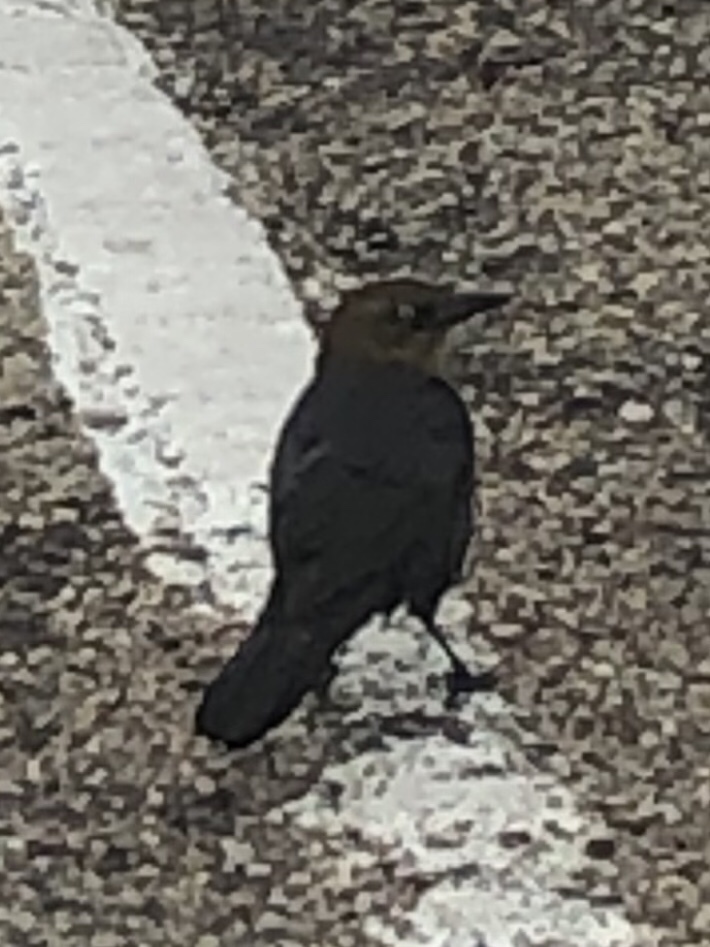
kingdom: Animalia
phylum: Chordata
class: Aves
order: Passeriformes
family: Icteridae
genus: Quiscalus
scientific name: Quiscalus mexicanus
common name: Great-tailed grackle
